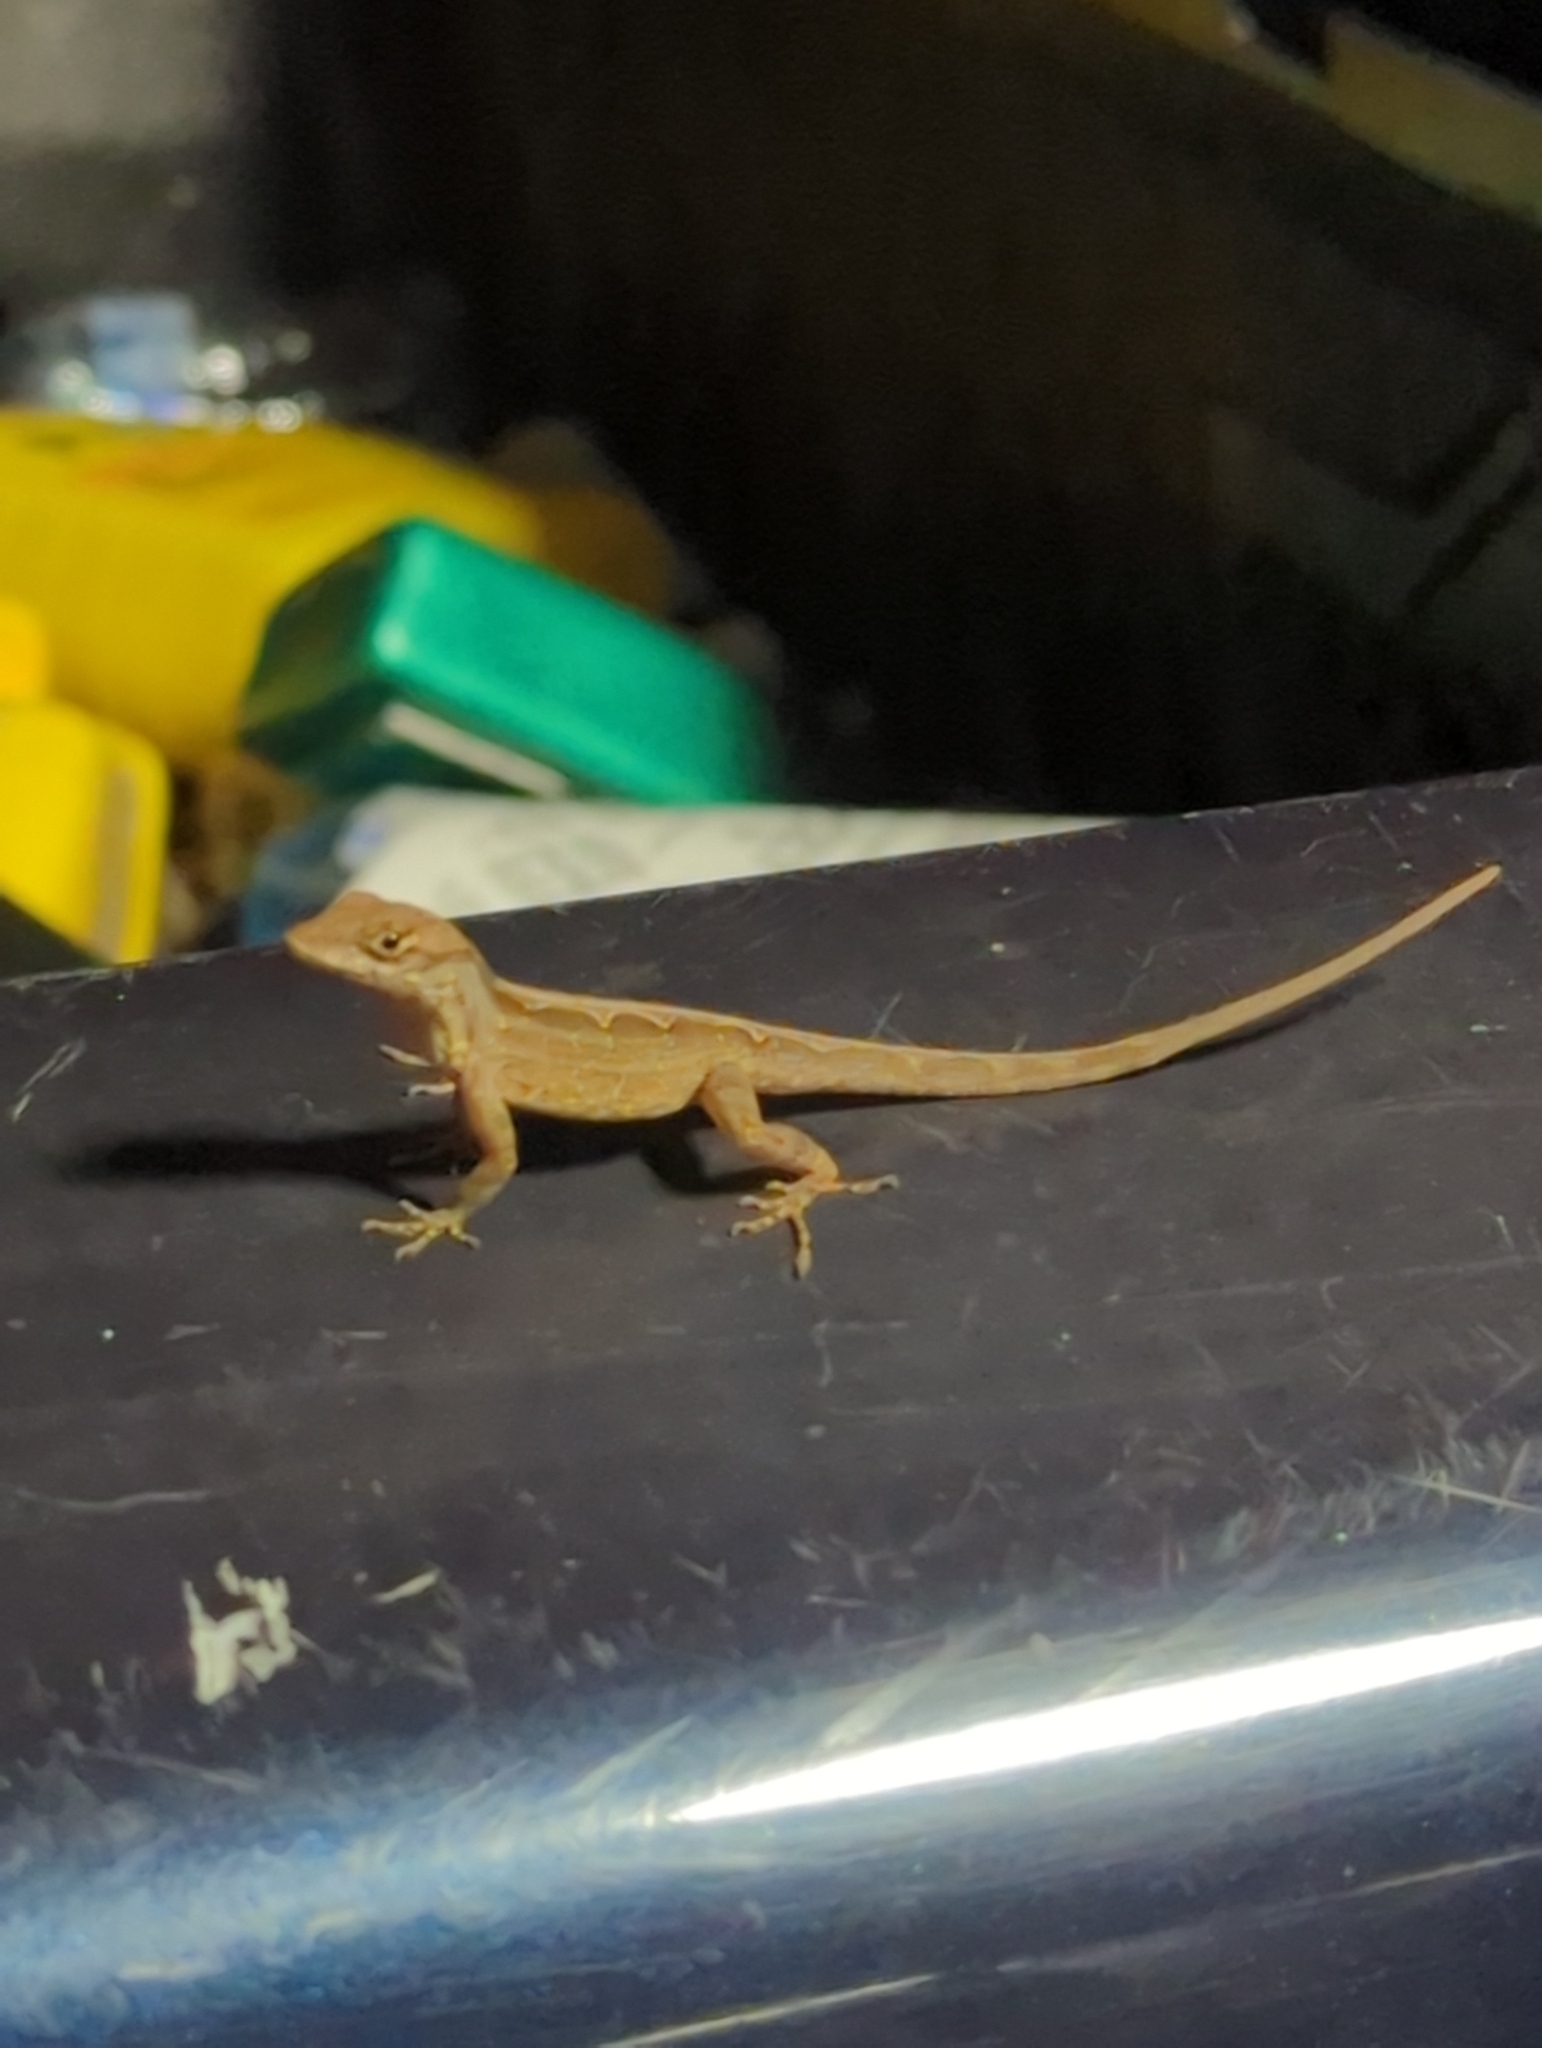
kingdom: Animalia
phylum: Chordata
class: Squamata
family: Dactyloidae
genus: Anolis
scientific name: Anolis sagrei
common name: Brown anole
